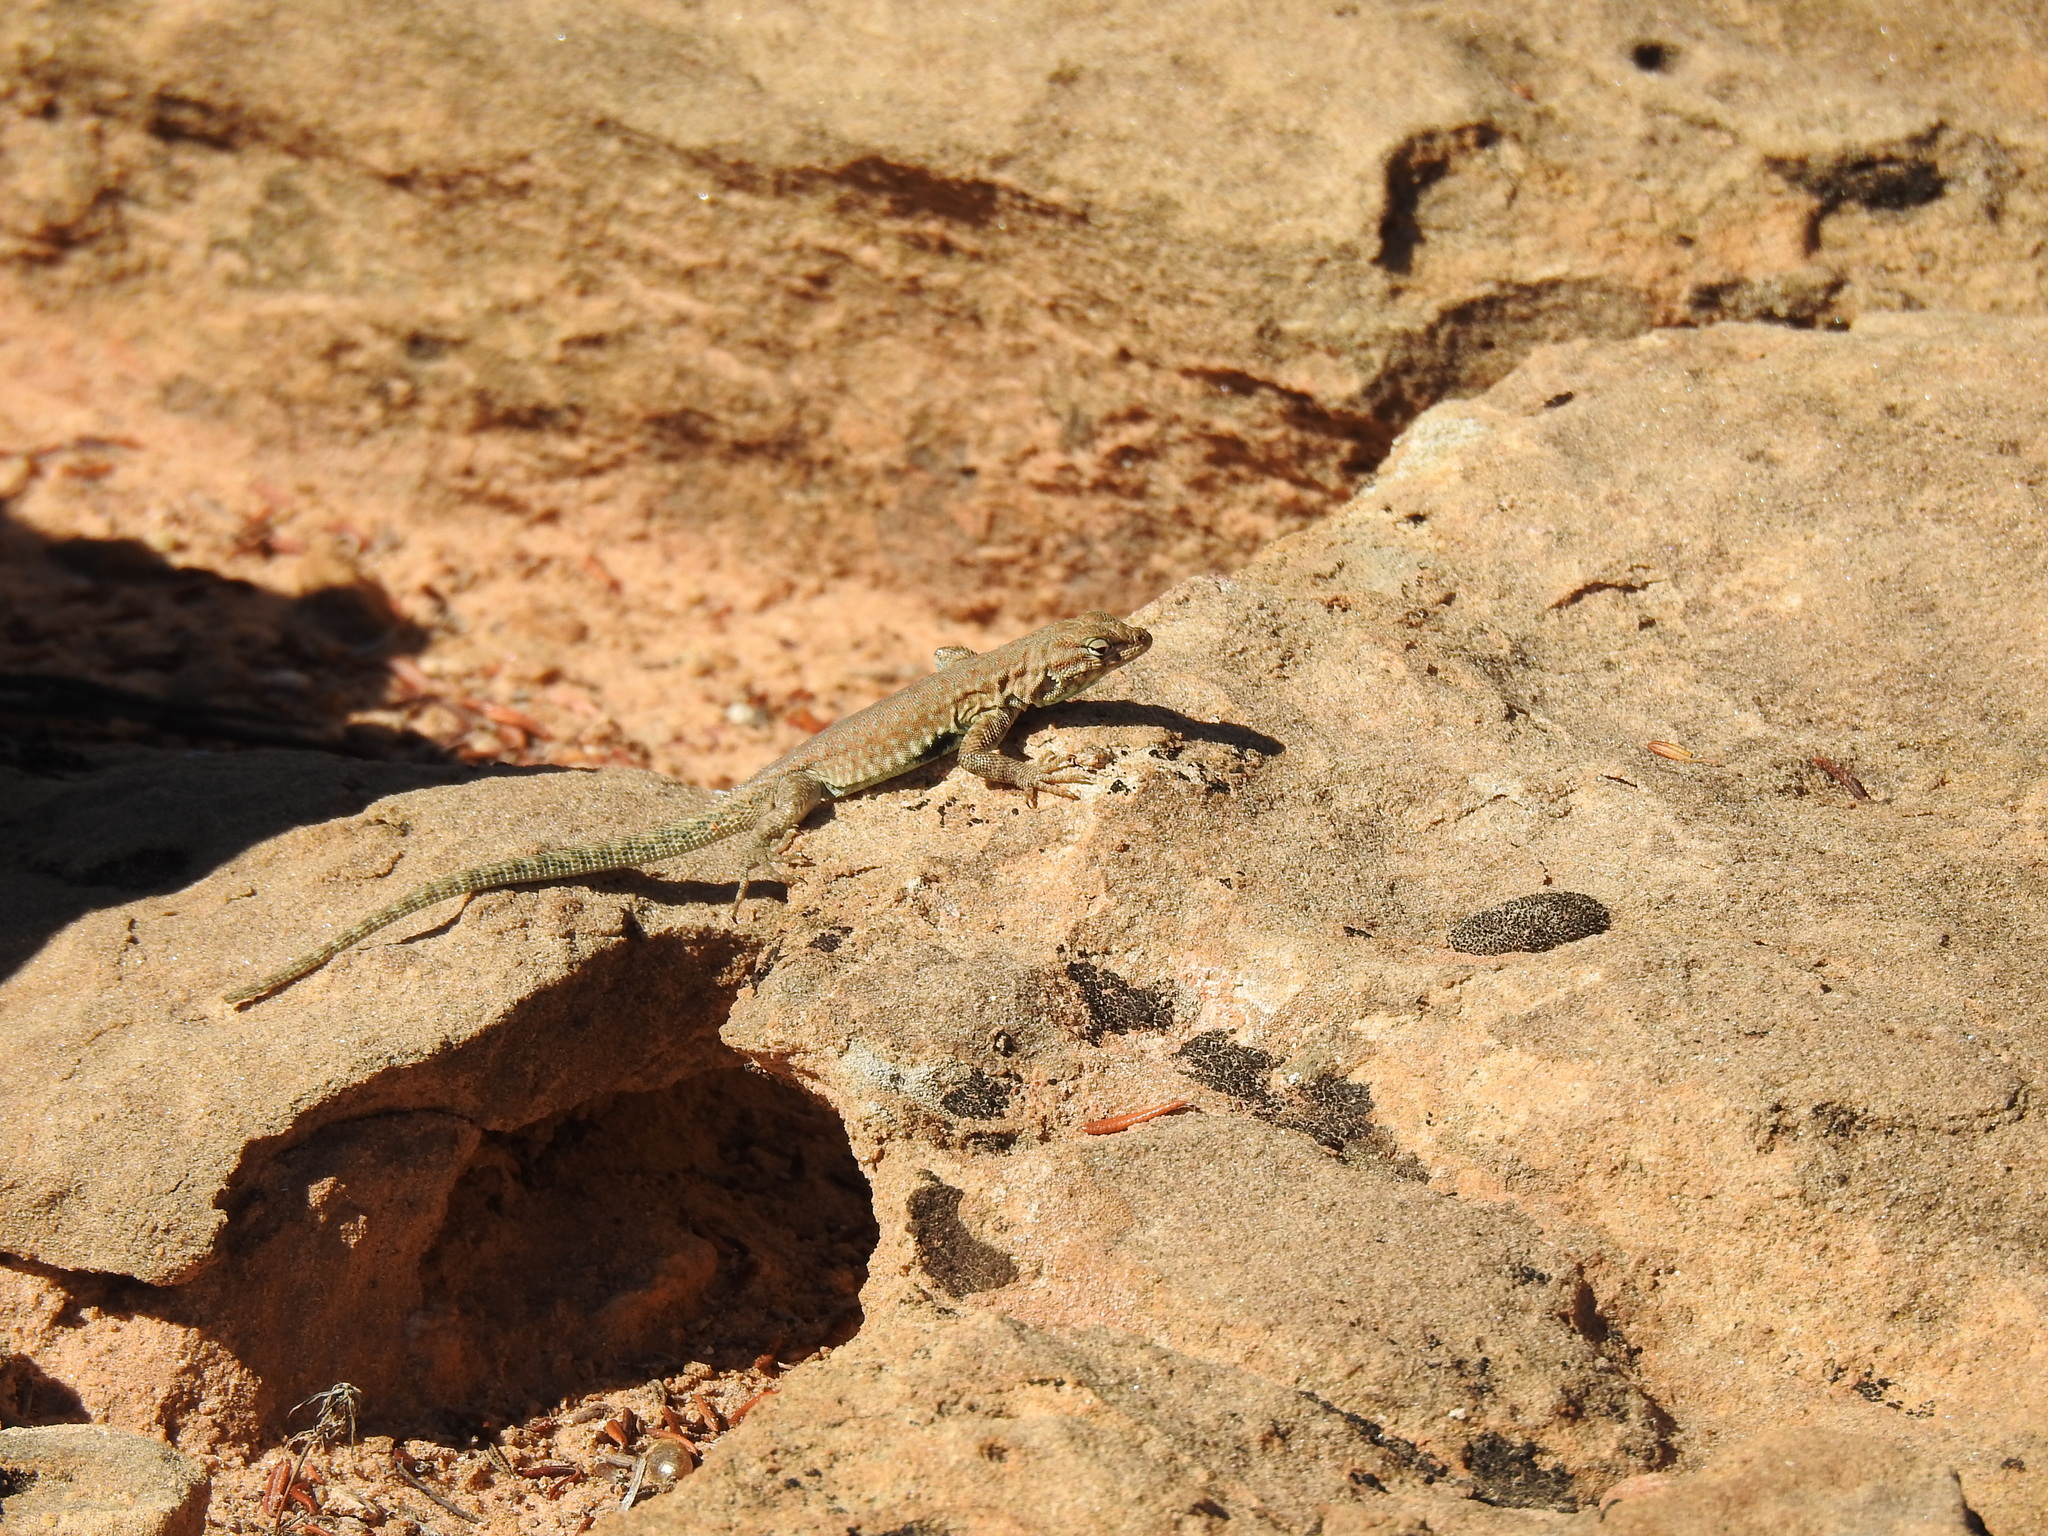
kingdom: Animalia
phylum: Chordata
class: Squamata
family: Phrynosomatidae
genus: Uta
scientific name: Uta stansburiana
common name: Side-blotched lizard
